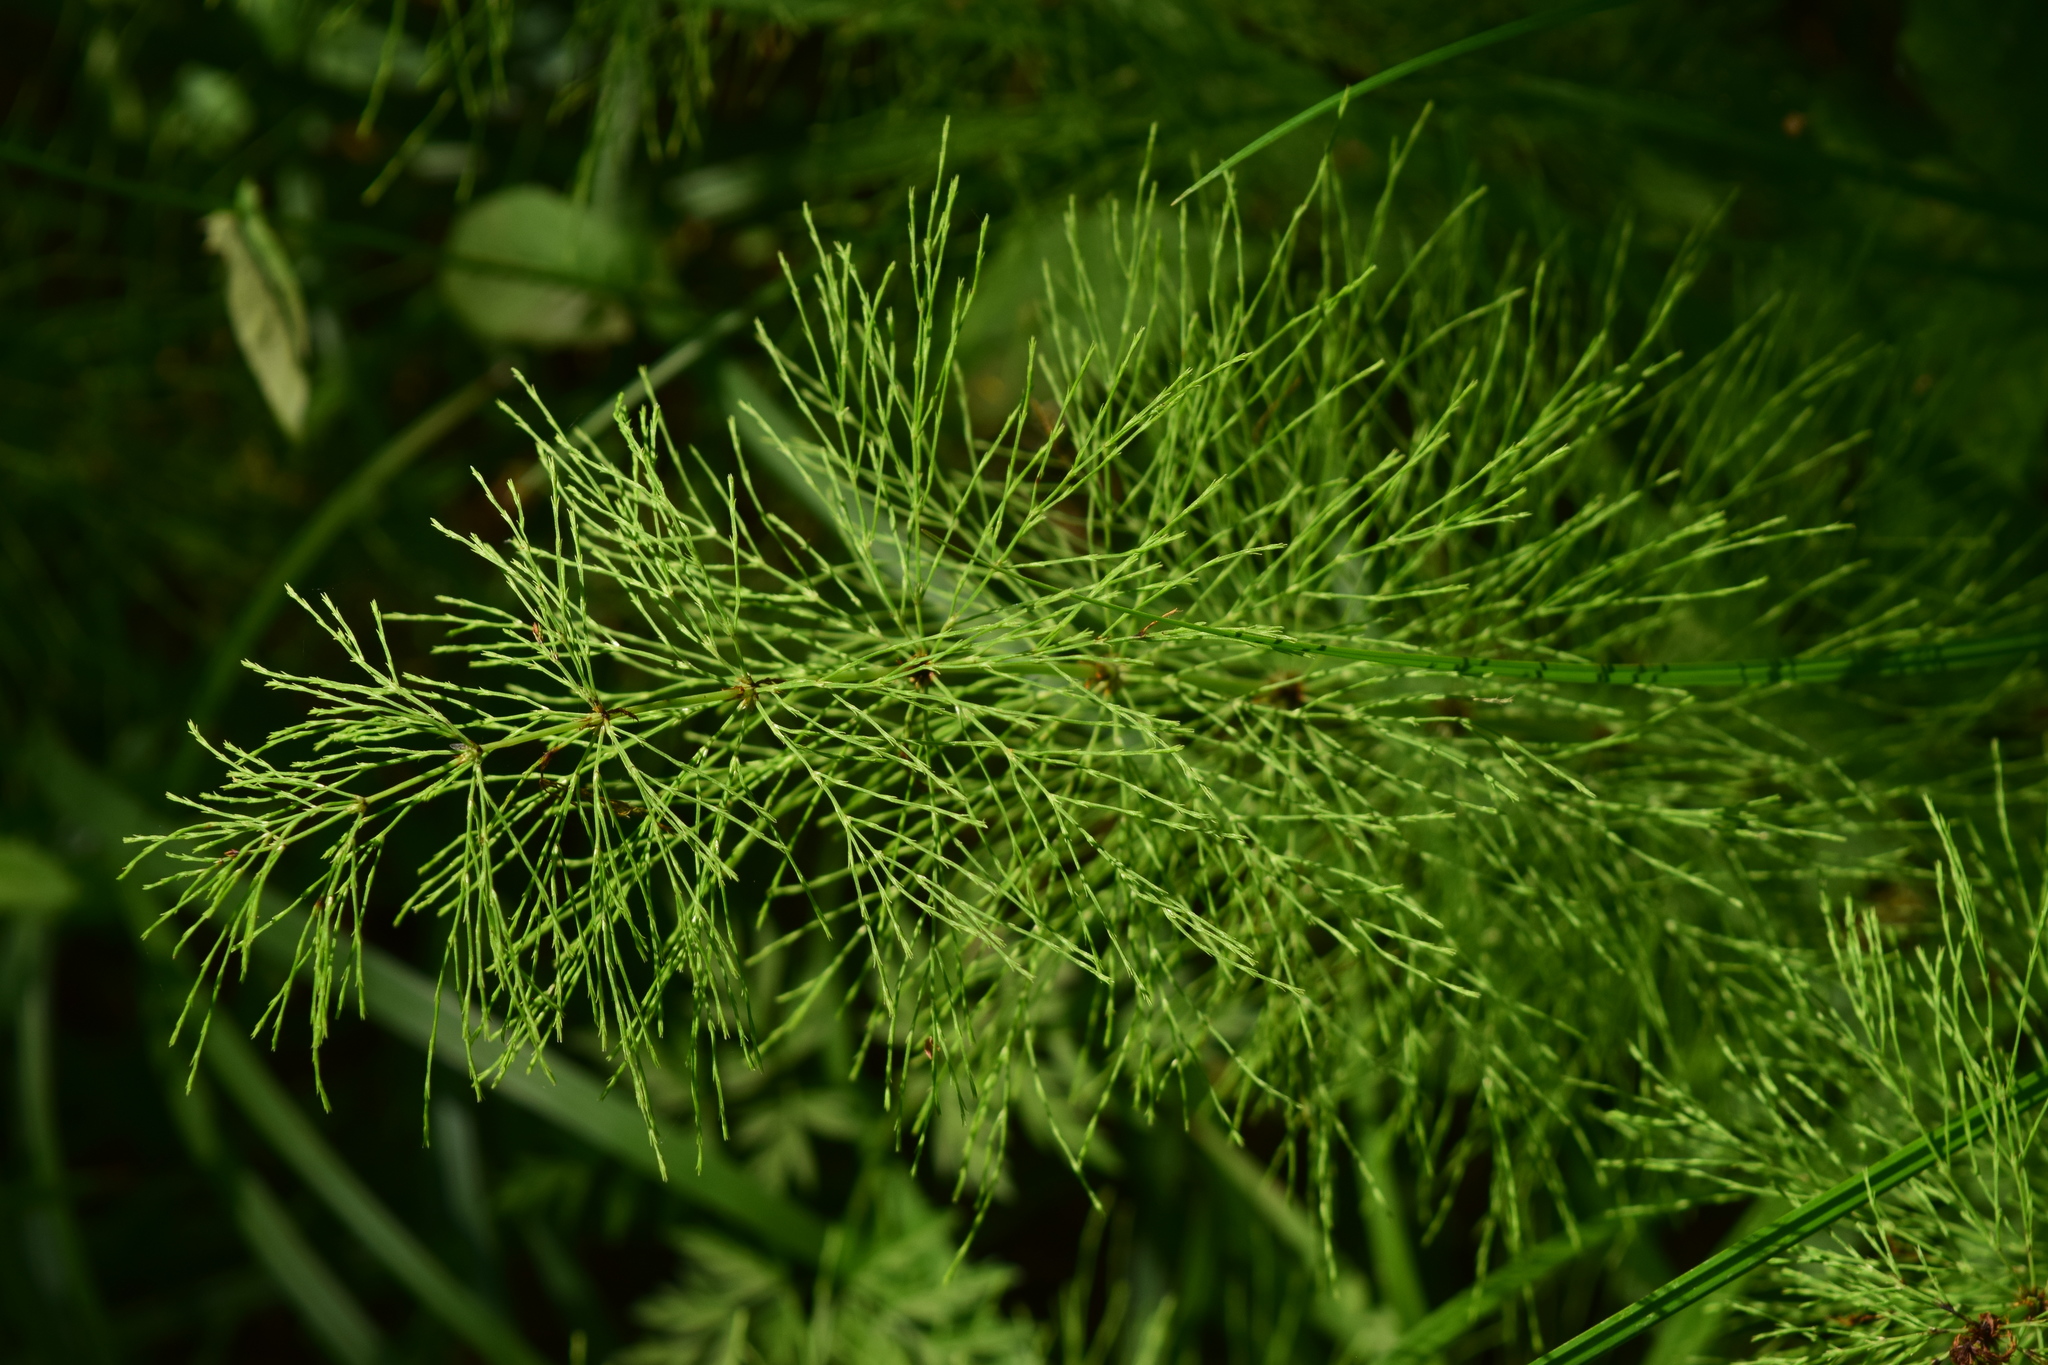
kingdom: Plantae
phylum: Tracheophyta
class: Polypodiopsida
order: Equisetales
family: Equisetaceae
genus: Equisetum
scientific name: Equisetum sylvaticum
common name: Wood horsetail
